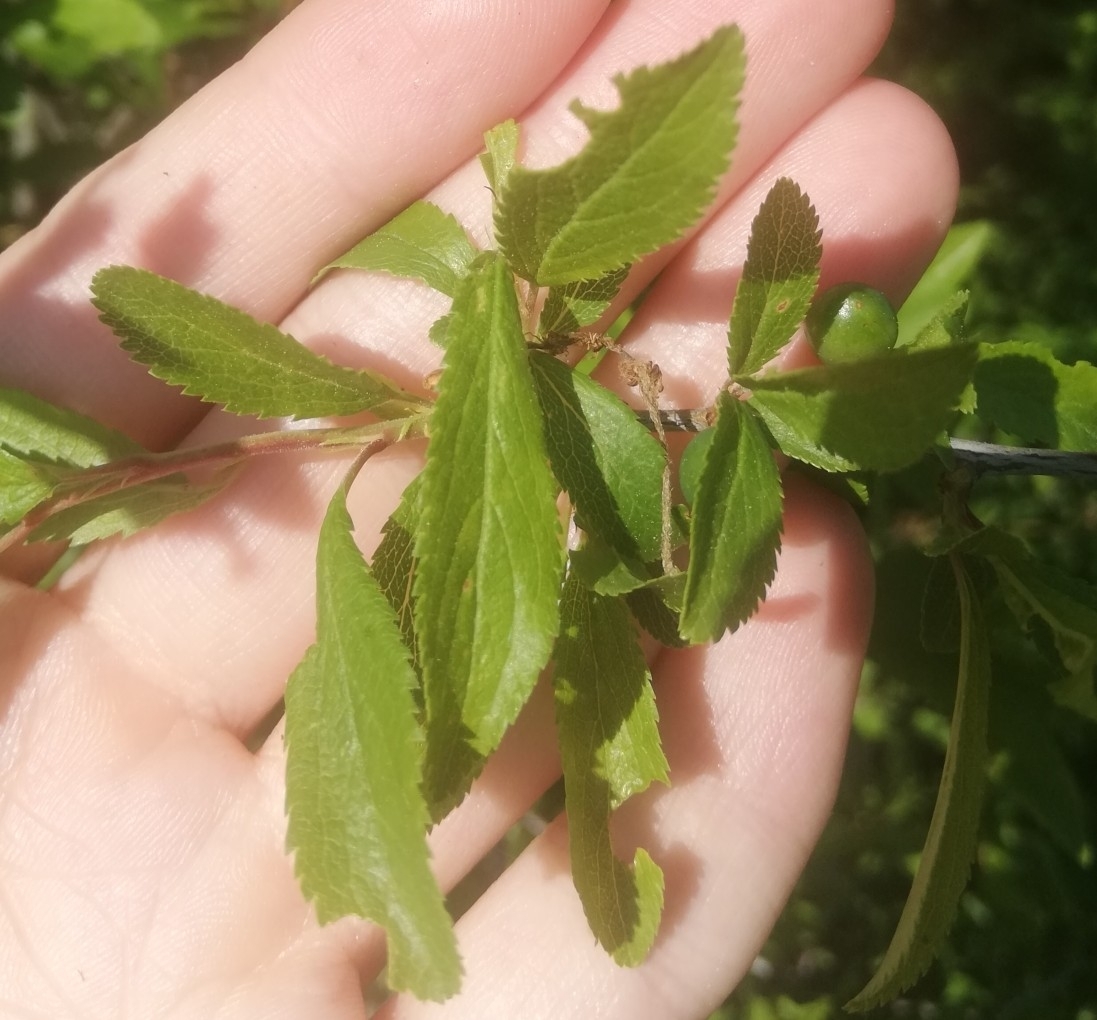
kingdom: Fungi
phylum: Ascomycota
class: Taphrinomycetes
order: Taphrinales
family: Taphrinaceae
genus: Taphrina
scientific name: Taphrina pruni
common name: Pocket plum
